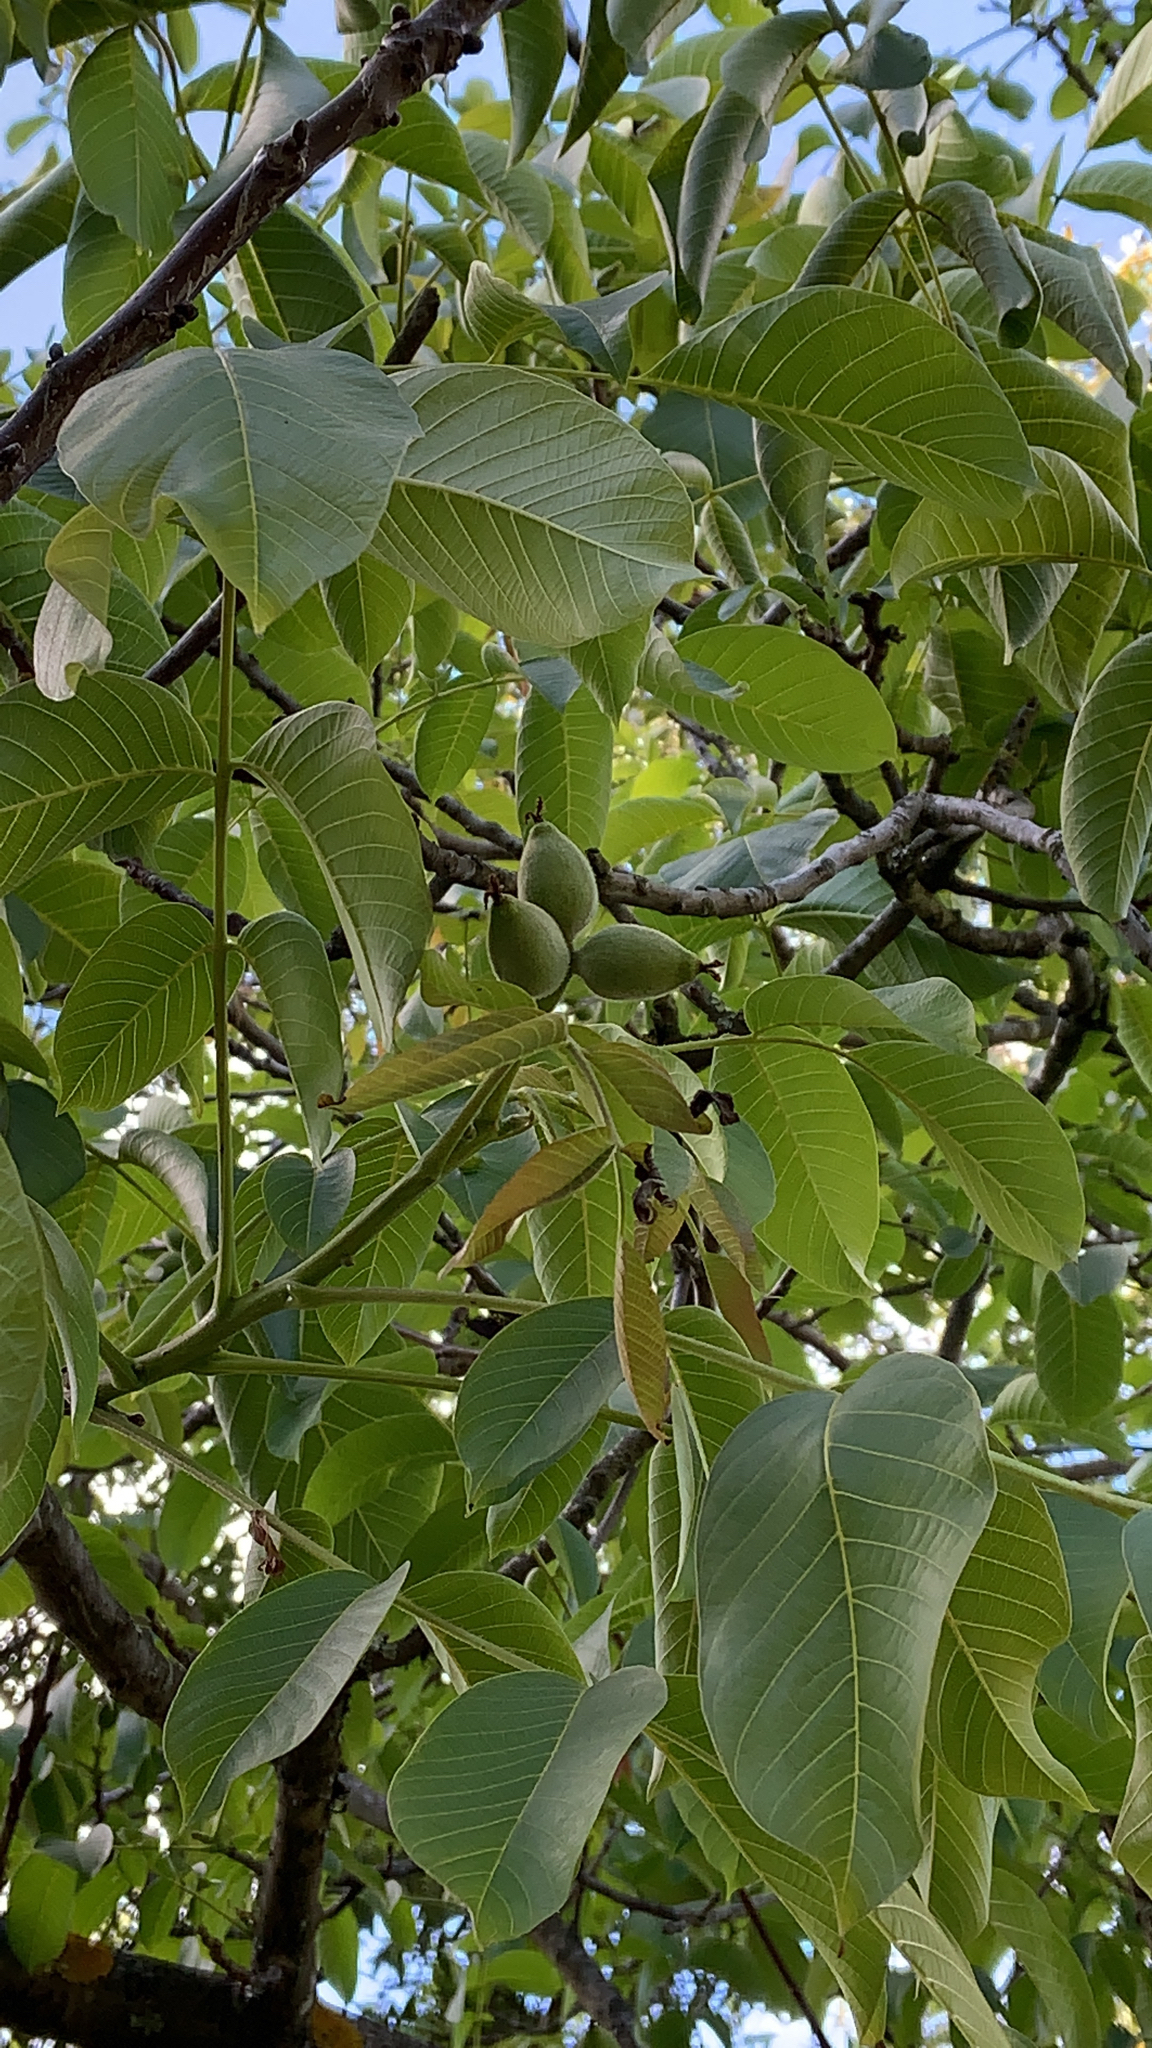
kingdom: Plantae
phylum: Tracheophyta
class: Magnoliopsida
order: Fagales
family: Juglandaceae
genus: Juglans
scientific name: Juglans regia
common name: Walnut
